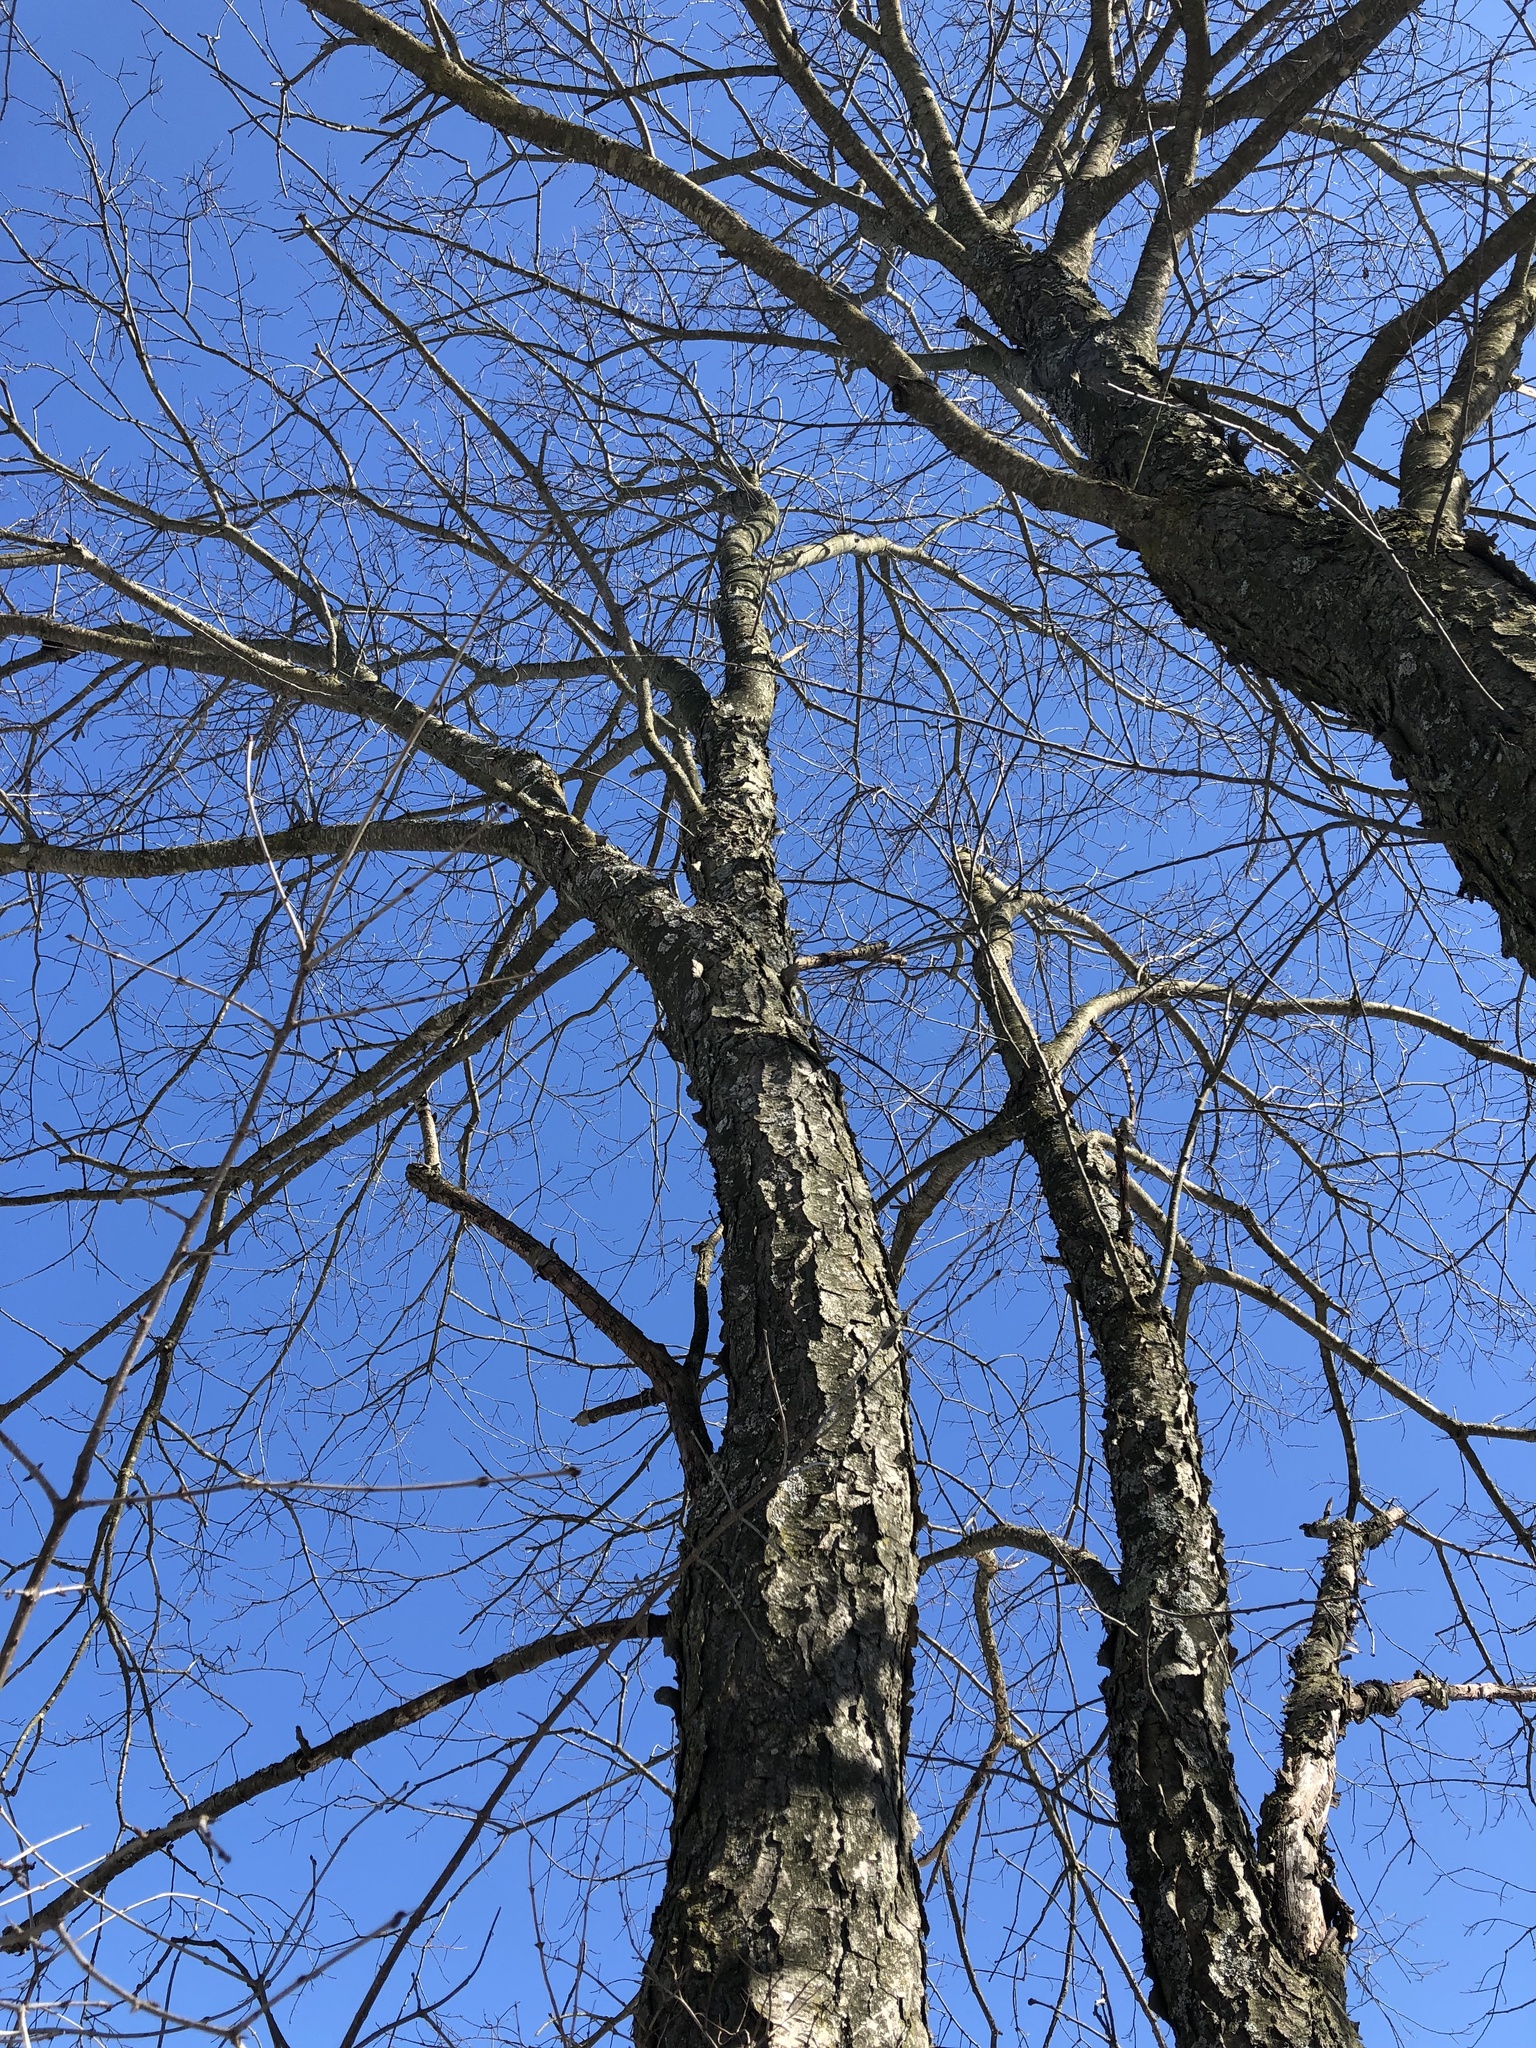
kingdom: Plantae
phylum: Tracheophyta
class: Magnoliopsida
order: Rosales
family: Rosaceae
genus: Prunus
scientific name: Prunus serotina
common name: Black cherry
